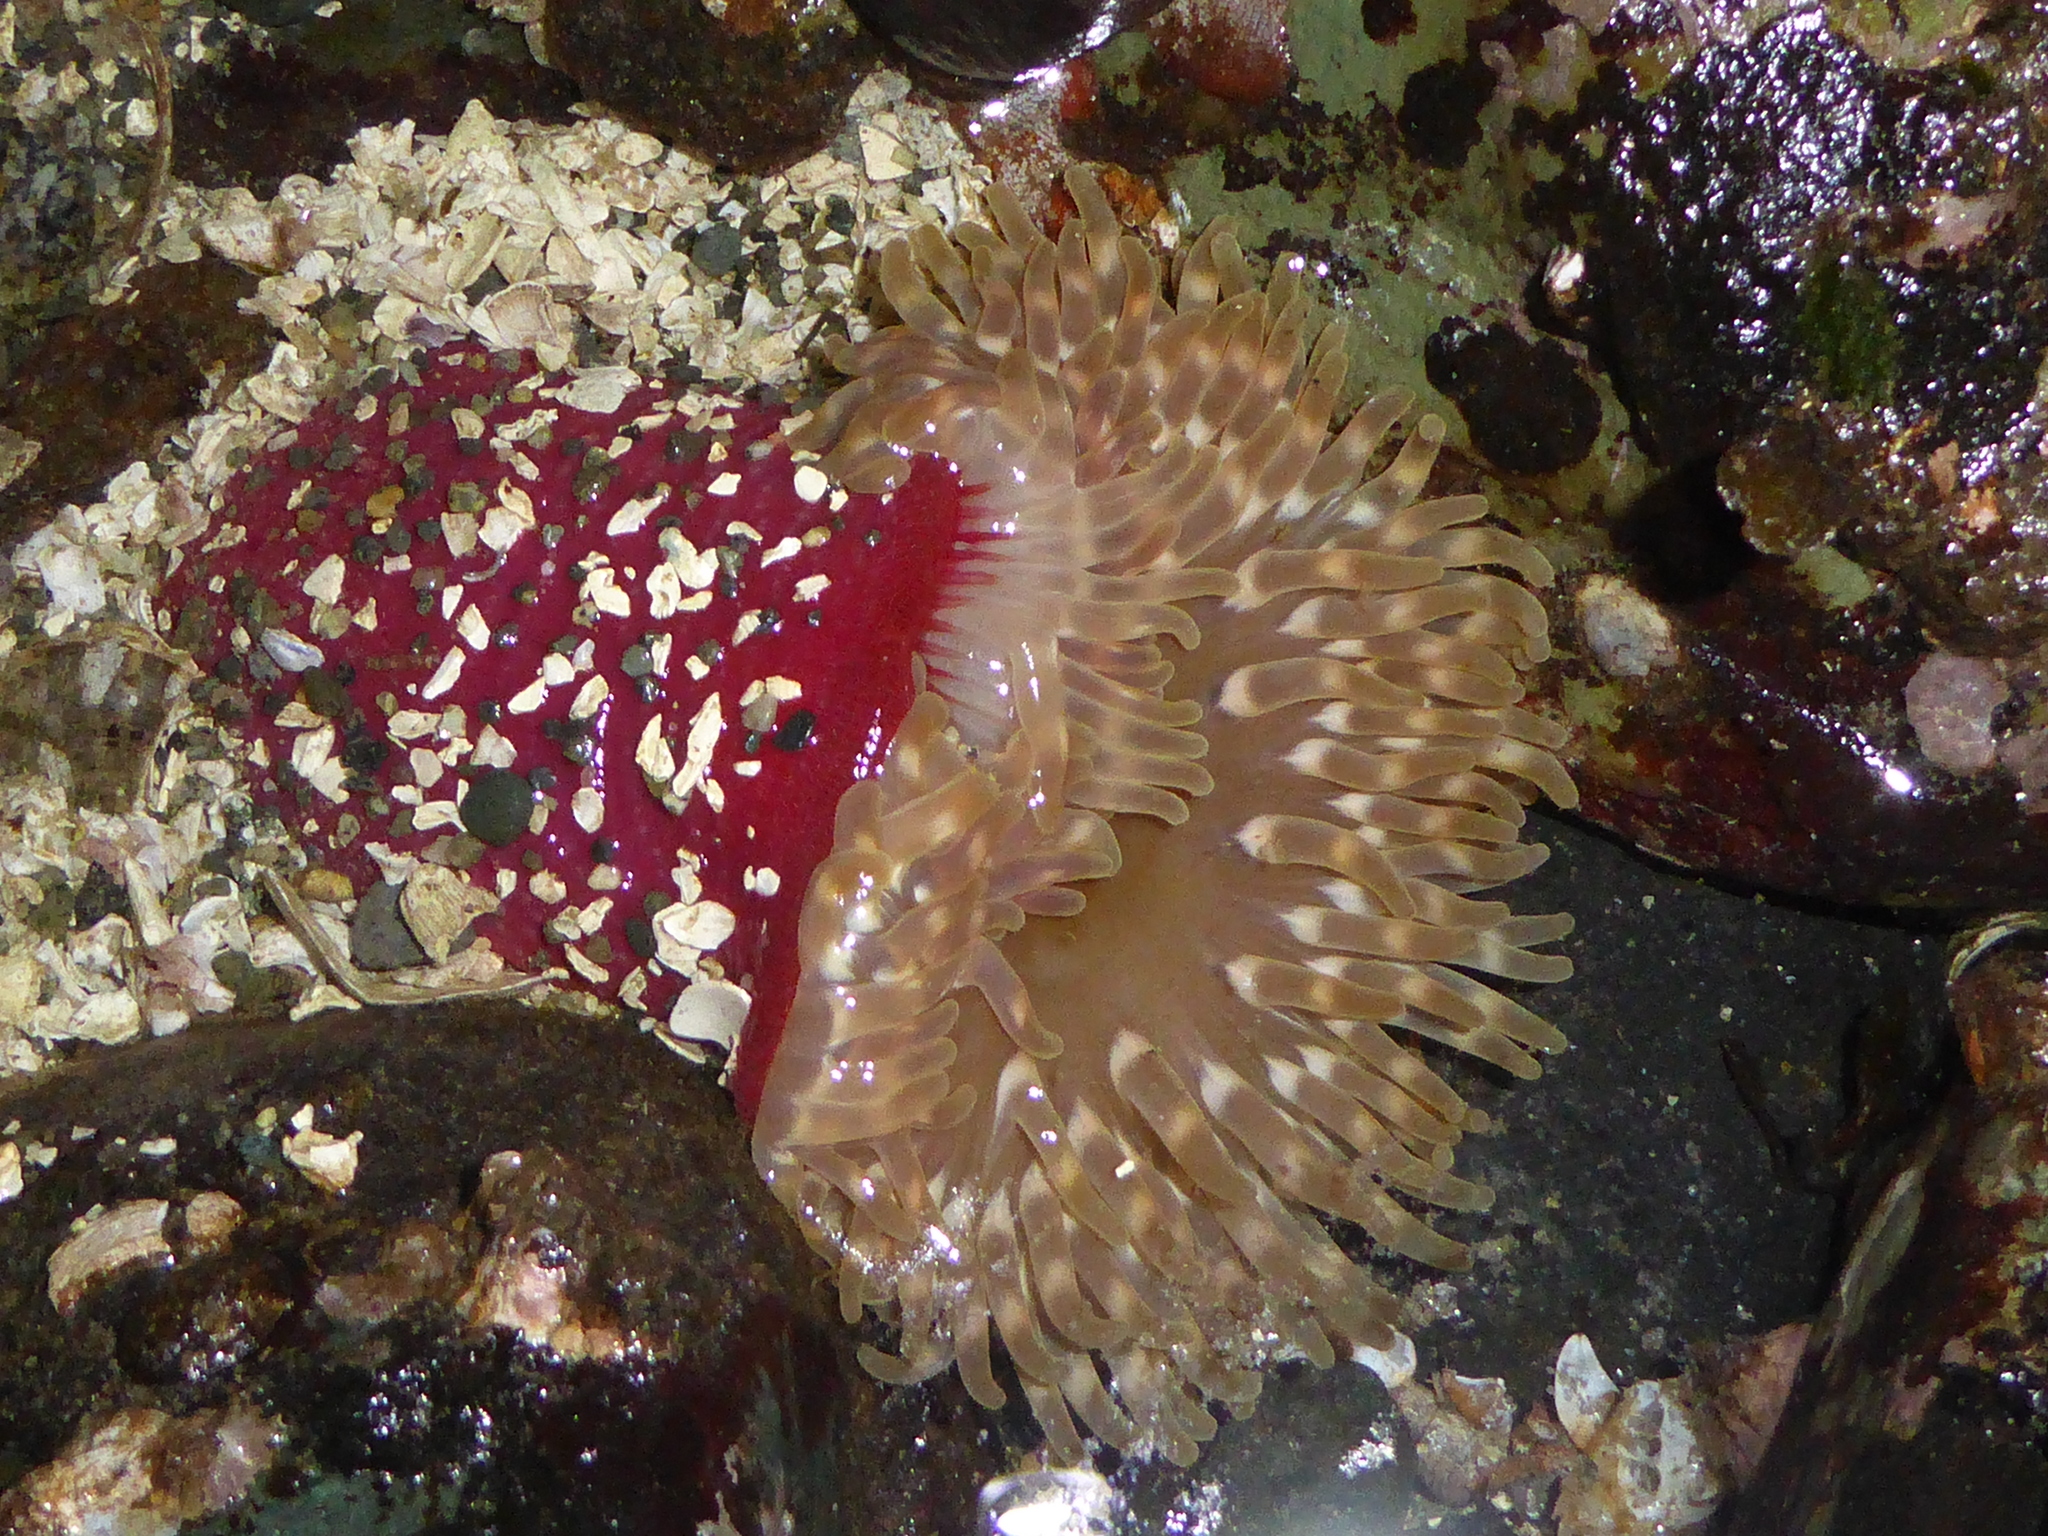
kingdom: Animalia
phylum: Cnidaria
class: Anthozoa
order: Actiniaria
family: Actiniidae
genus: Urticina
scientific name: Urticina clandestina
